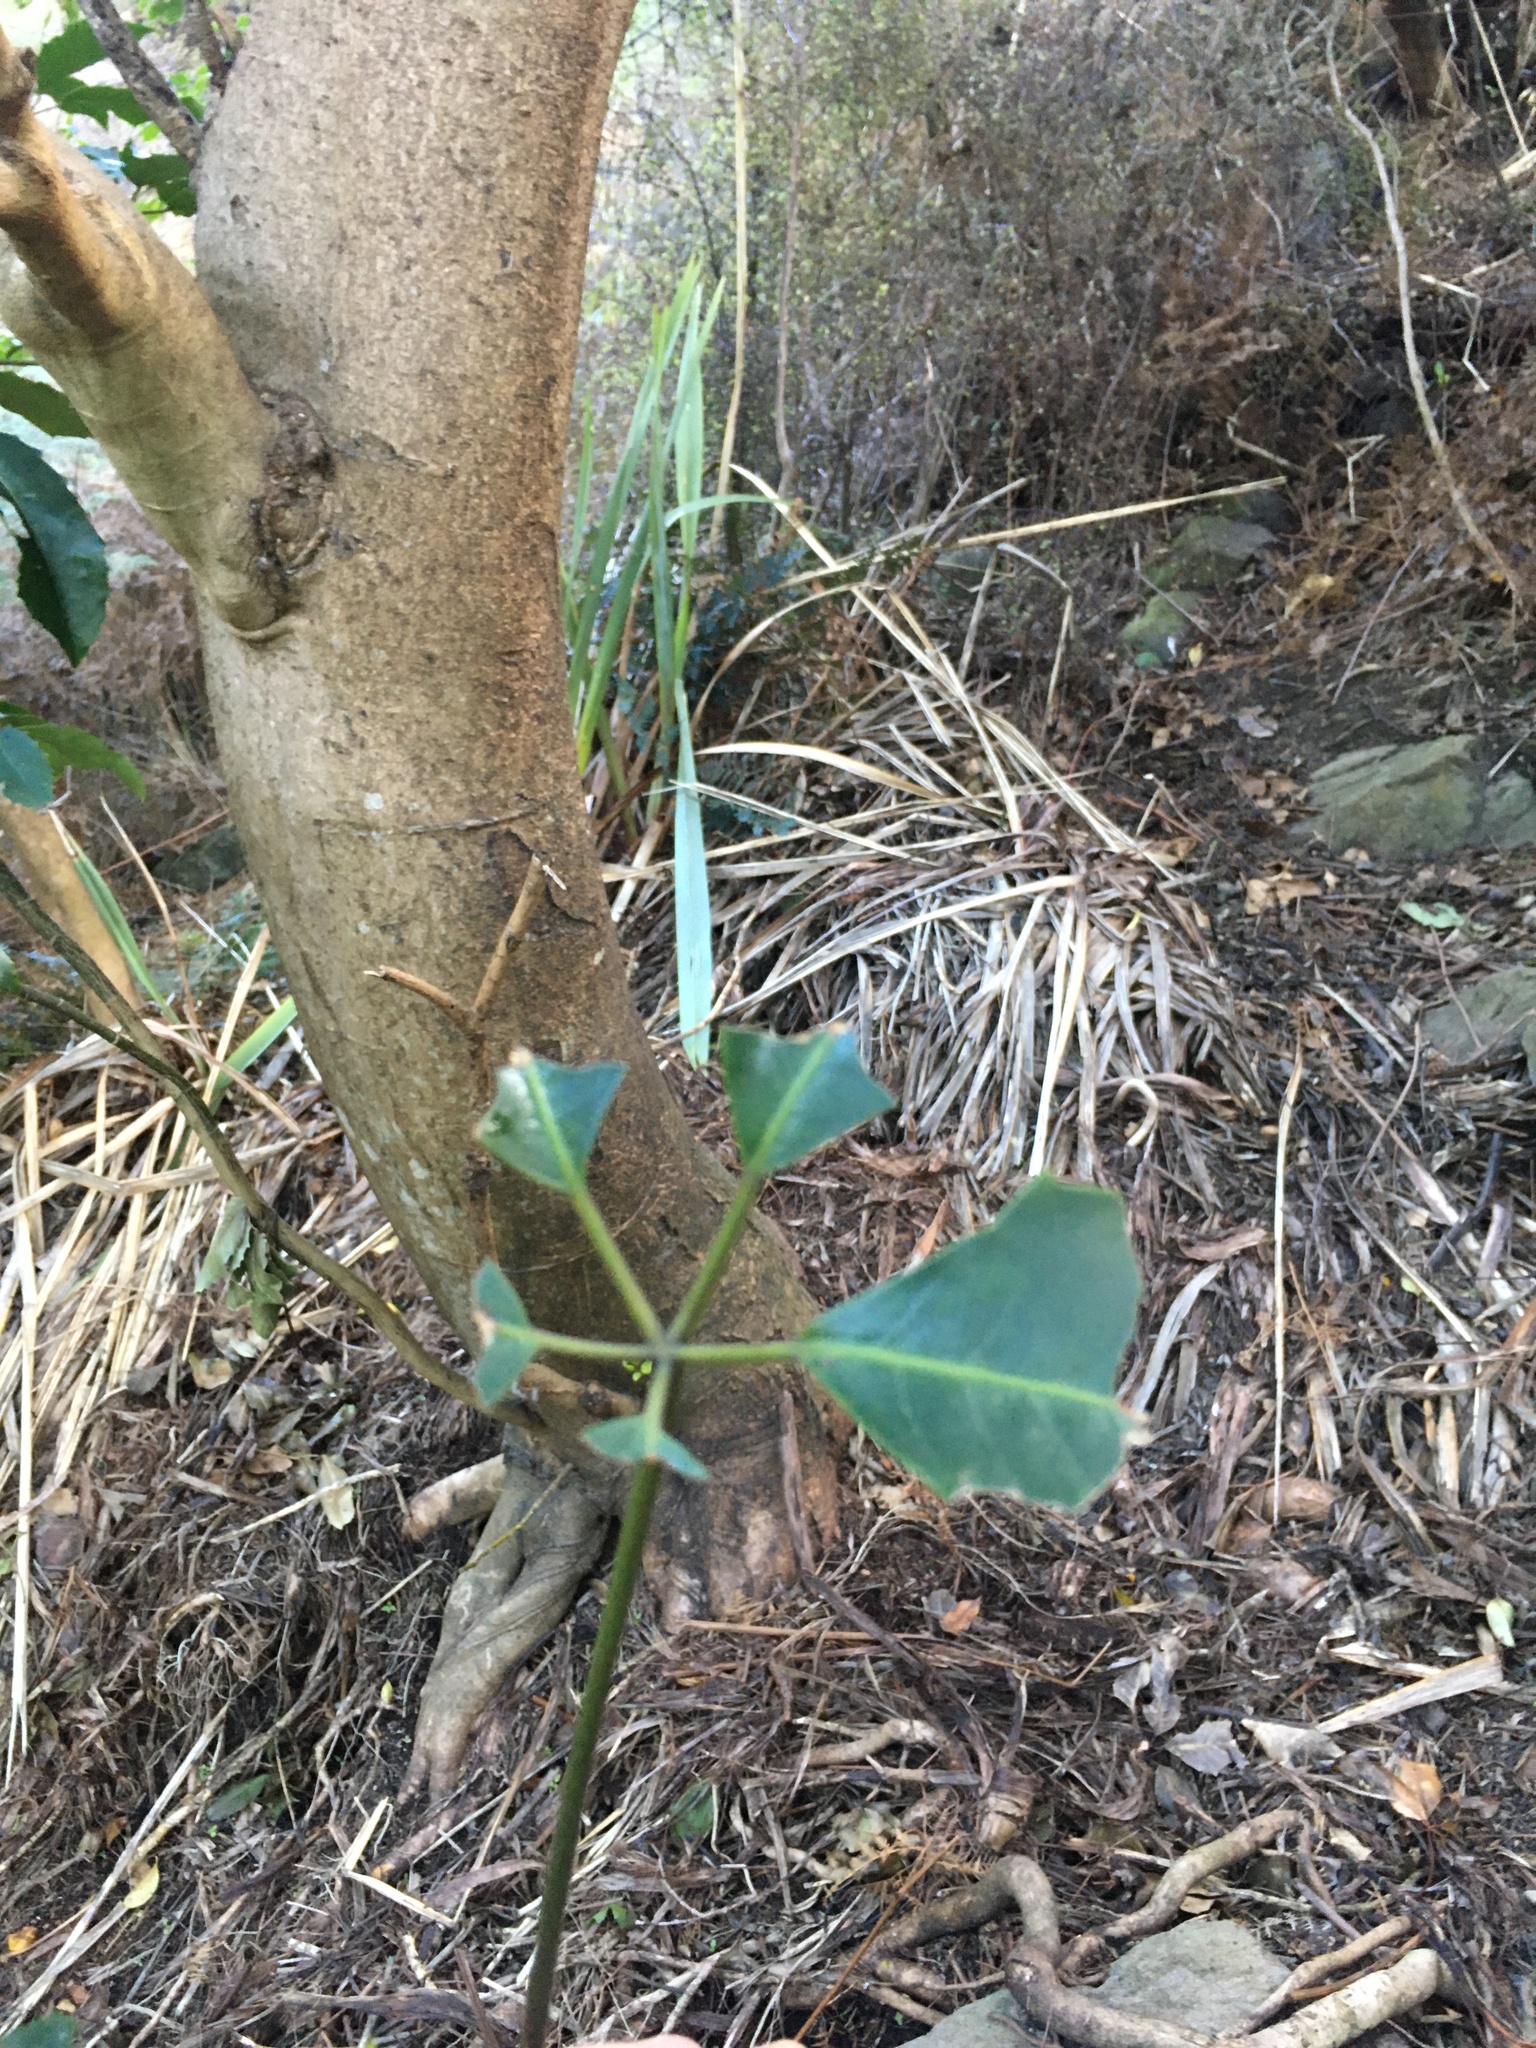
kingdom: Plantae
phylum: Tracheophyta
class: Magnoliopsida
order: Apiales
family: Araliaceae
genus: Neopanax
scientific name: Neopanax arboreus
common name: Five-fingers
